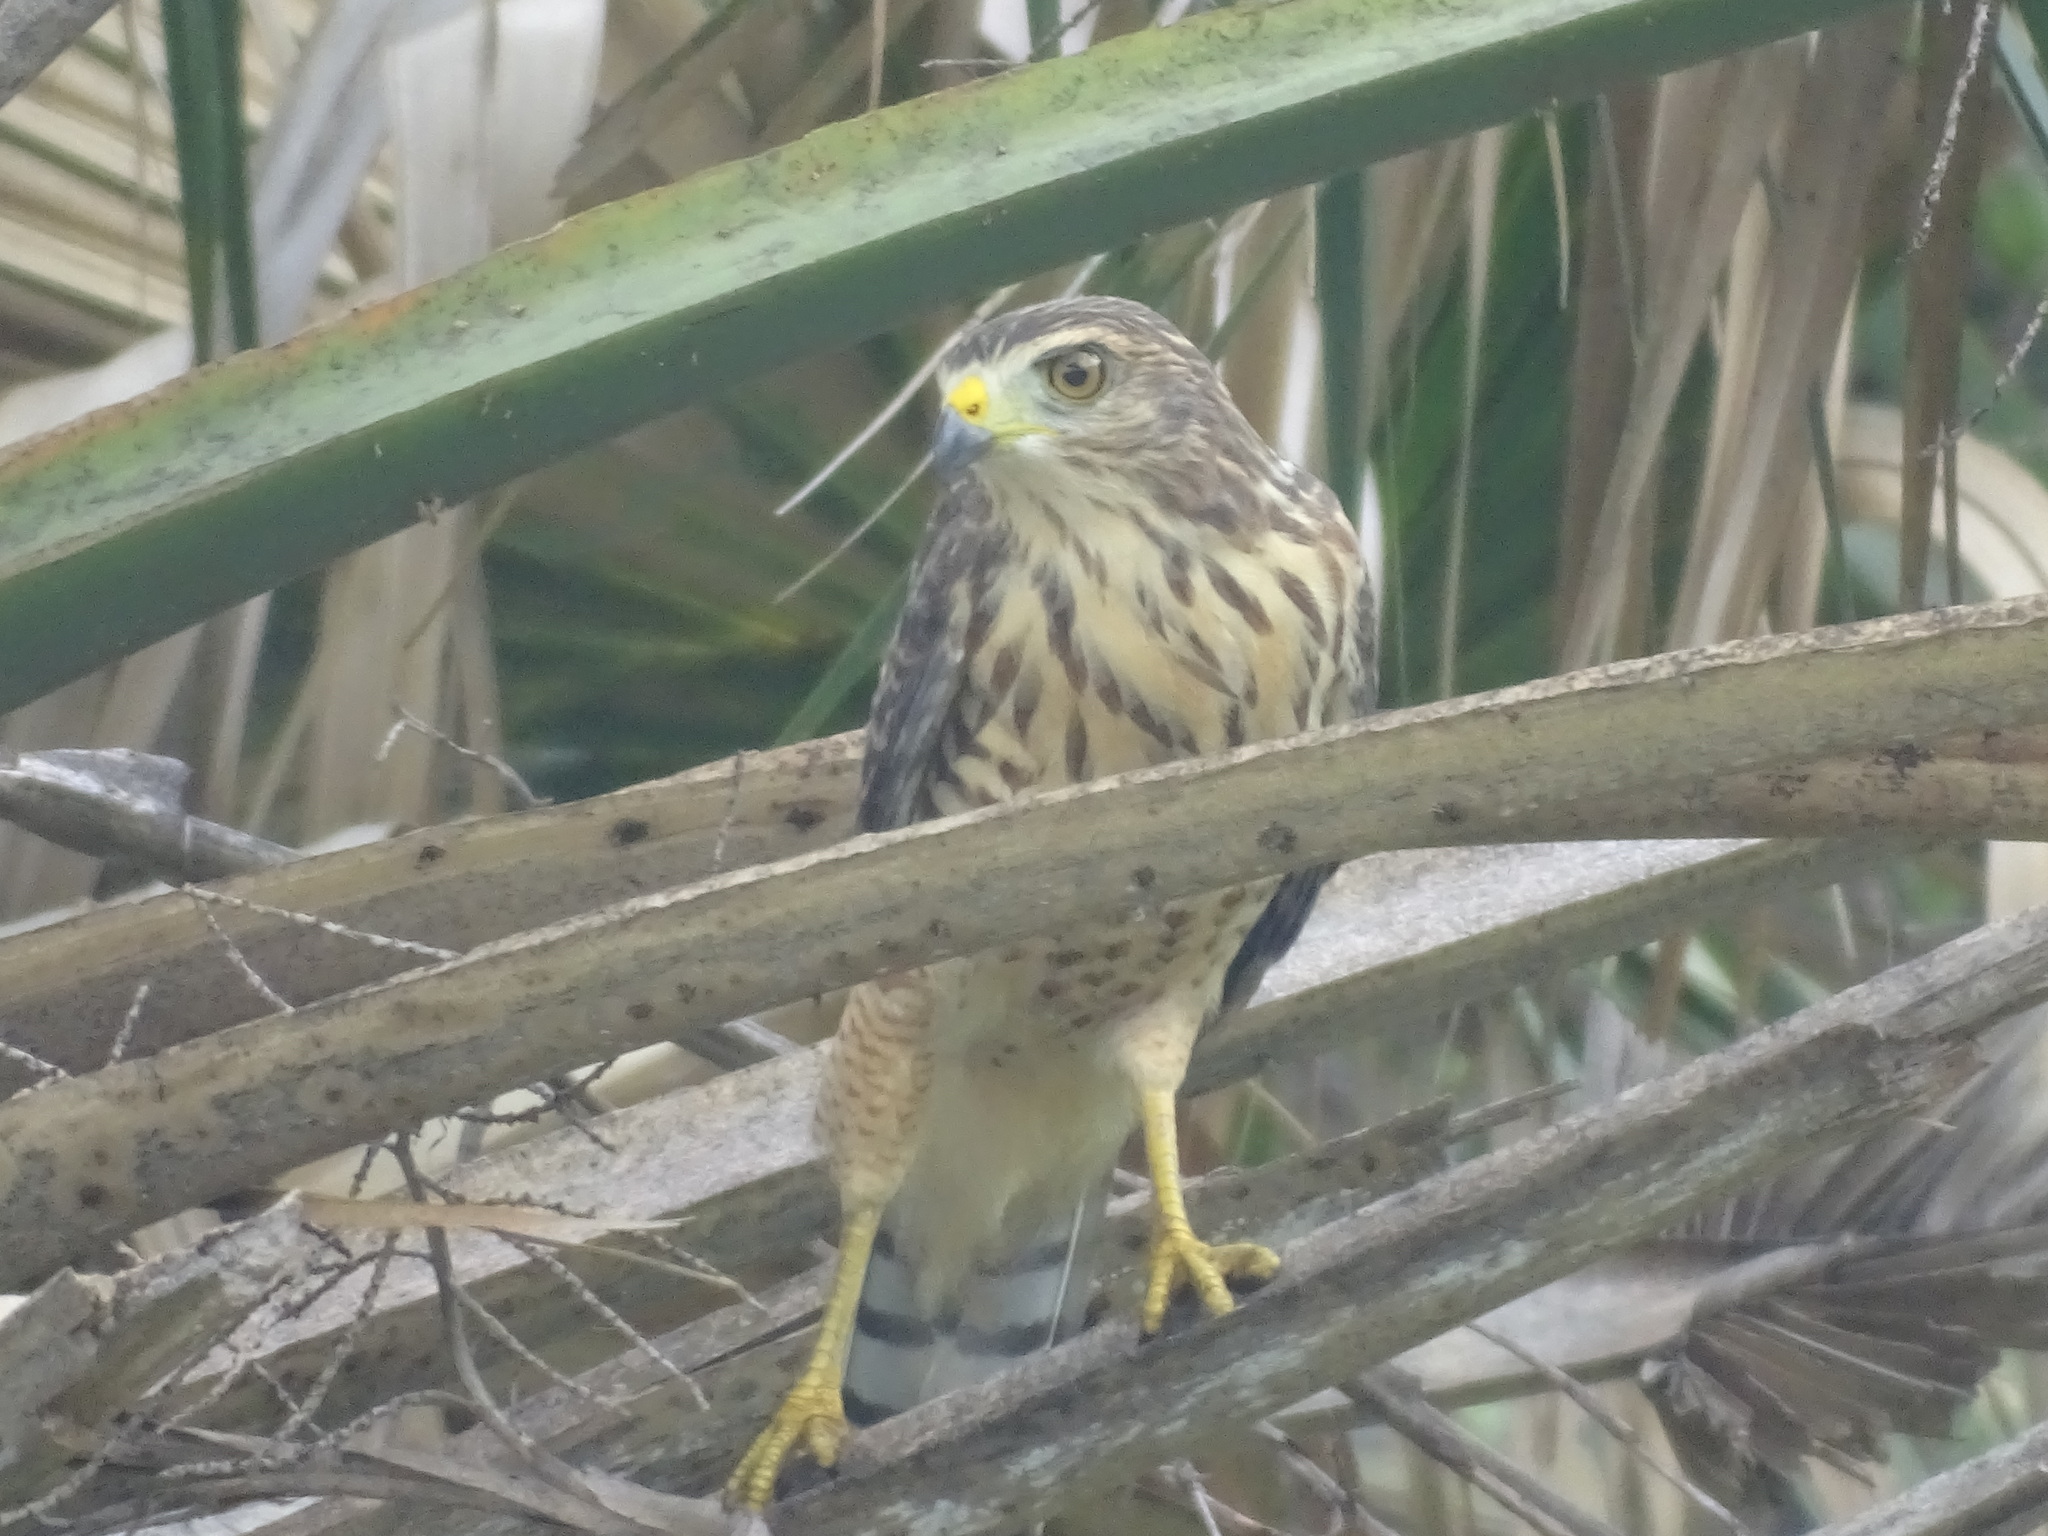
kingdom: Animalia
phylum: Chordata
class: Aves
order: Accipitriformes
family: Accipitridae
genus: Rupornis
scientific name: Rupornis magnirostris
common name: Roadside hawk
